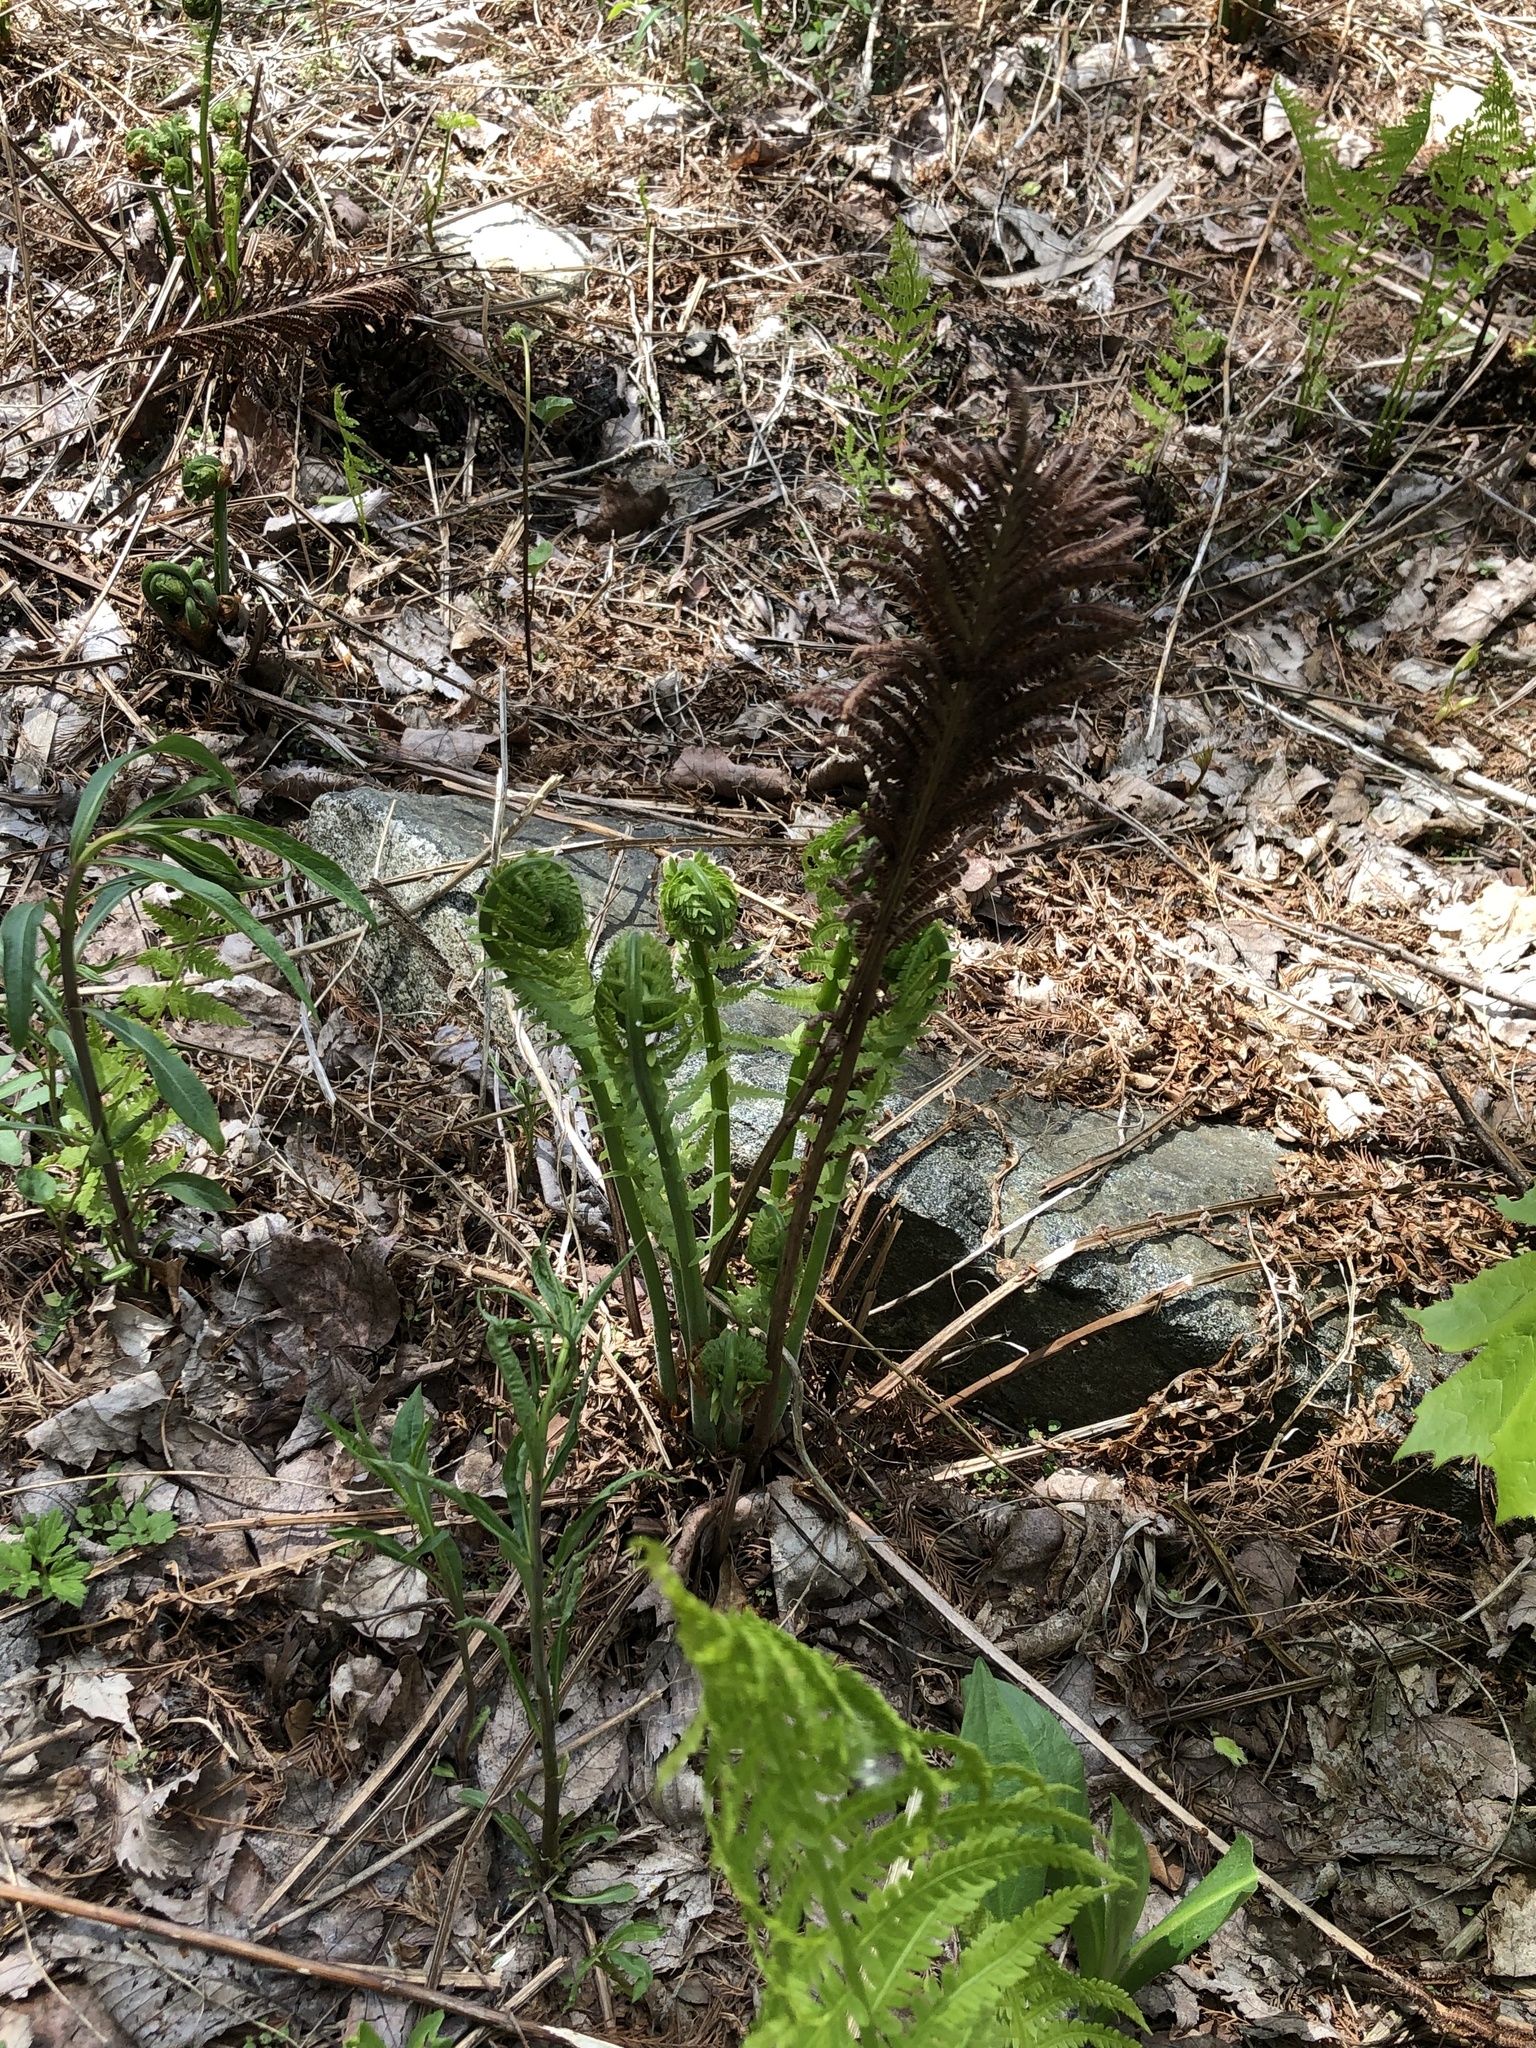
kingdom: Plantae
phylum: Tracheophyta
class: Polypodiopsida
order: Polypodiales
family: Onocleaceae
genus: Matteuccia
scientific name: Matteuccia struthiopteris
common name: Ostrich fern
